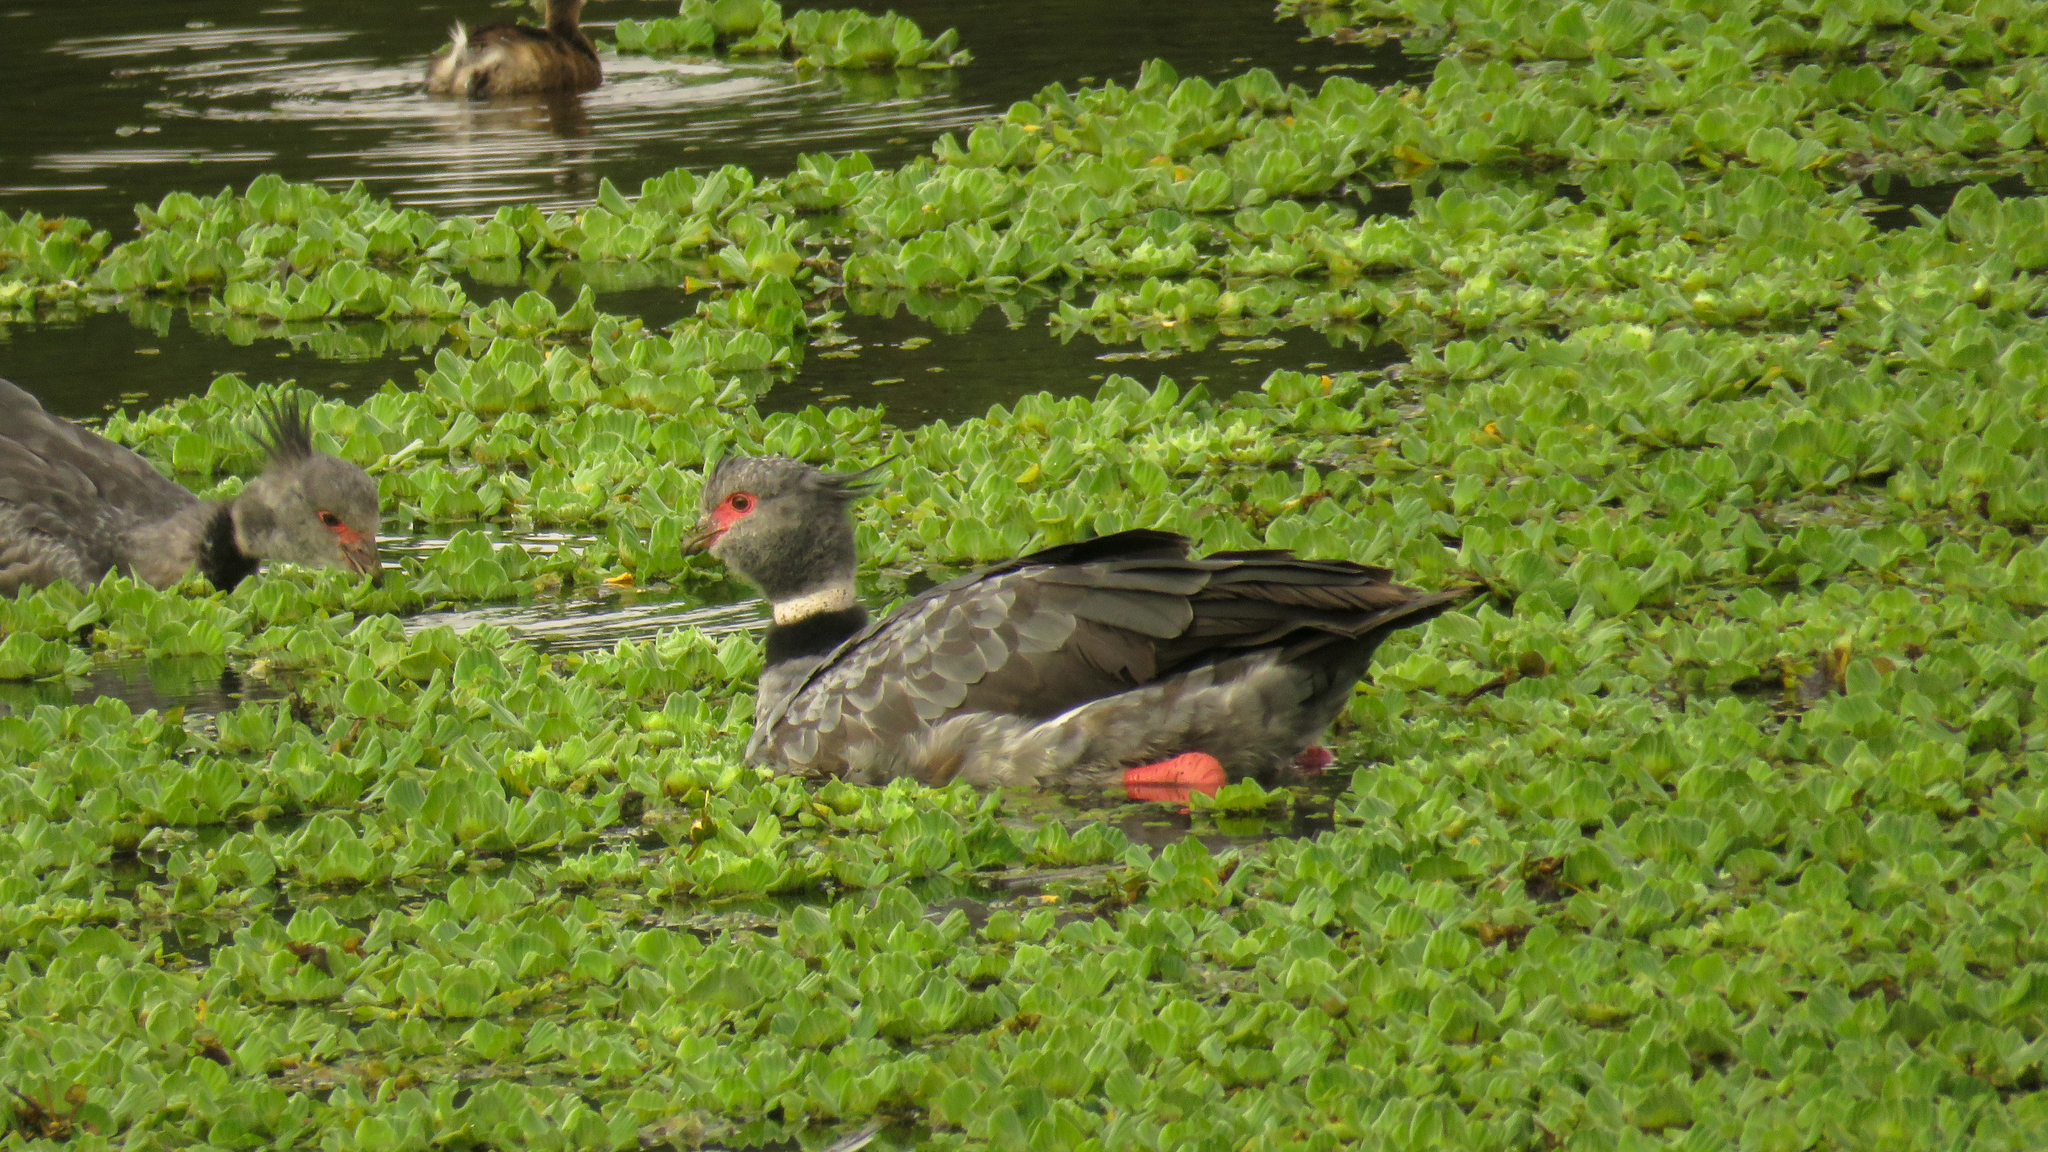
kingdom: Animalia
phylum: Chordata
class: Aves
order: Anseriformes
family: Anhimidae
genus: Chauna
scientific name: Chauna torquata
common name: Southern screamer
